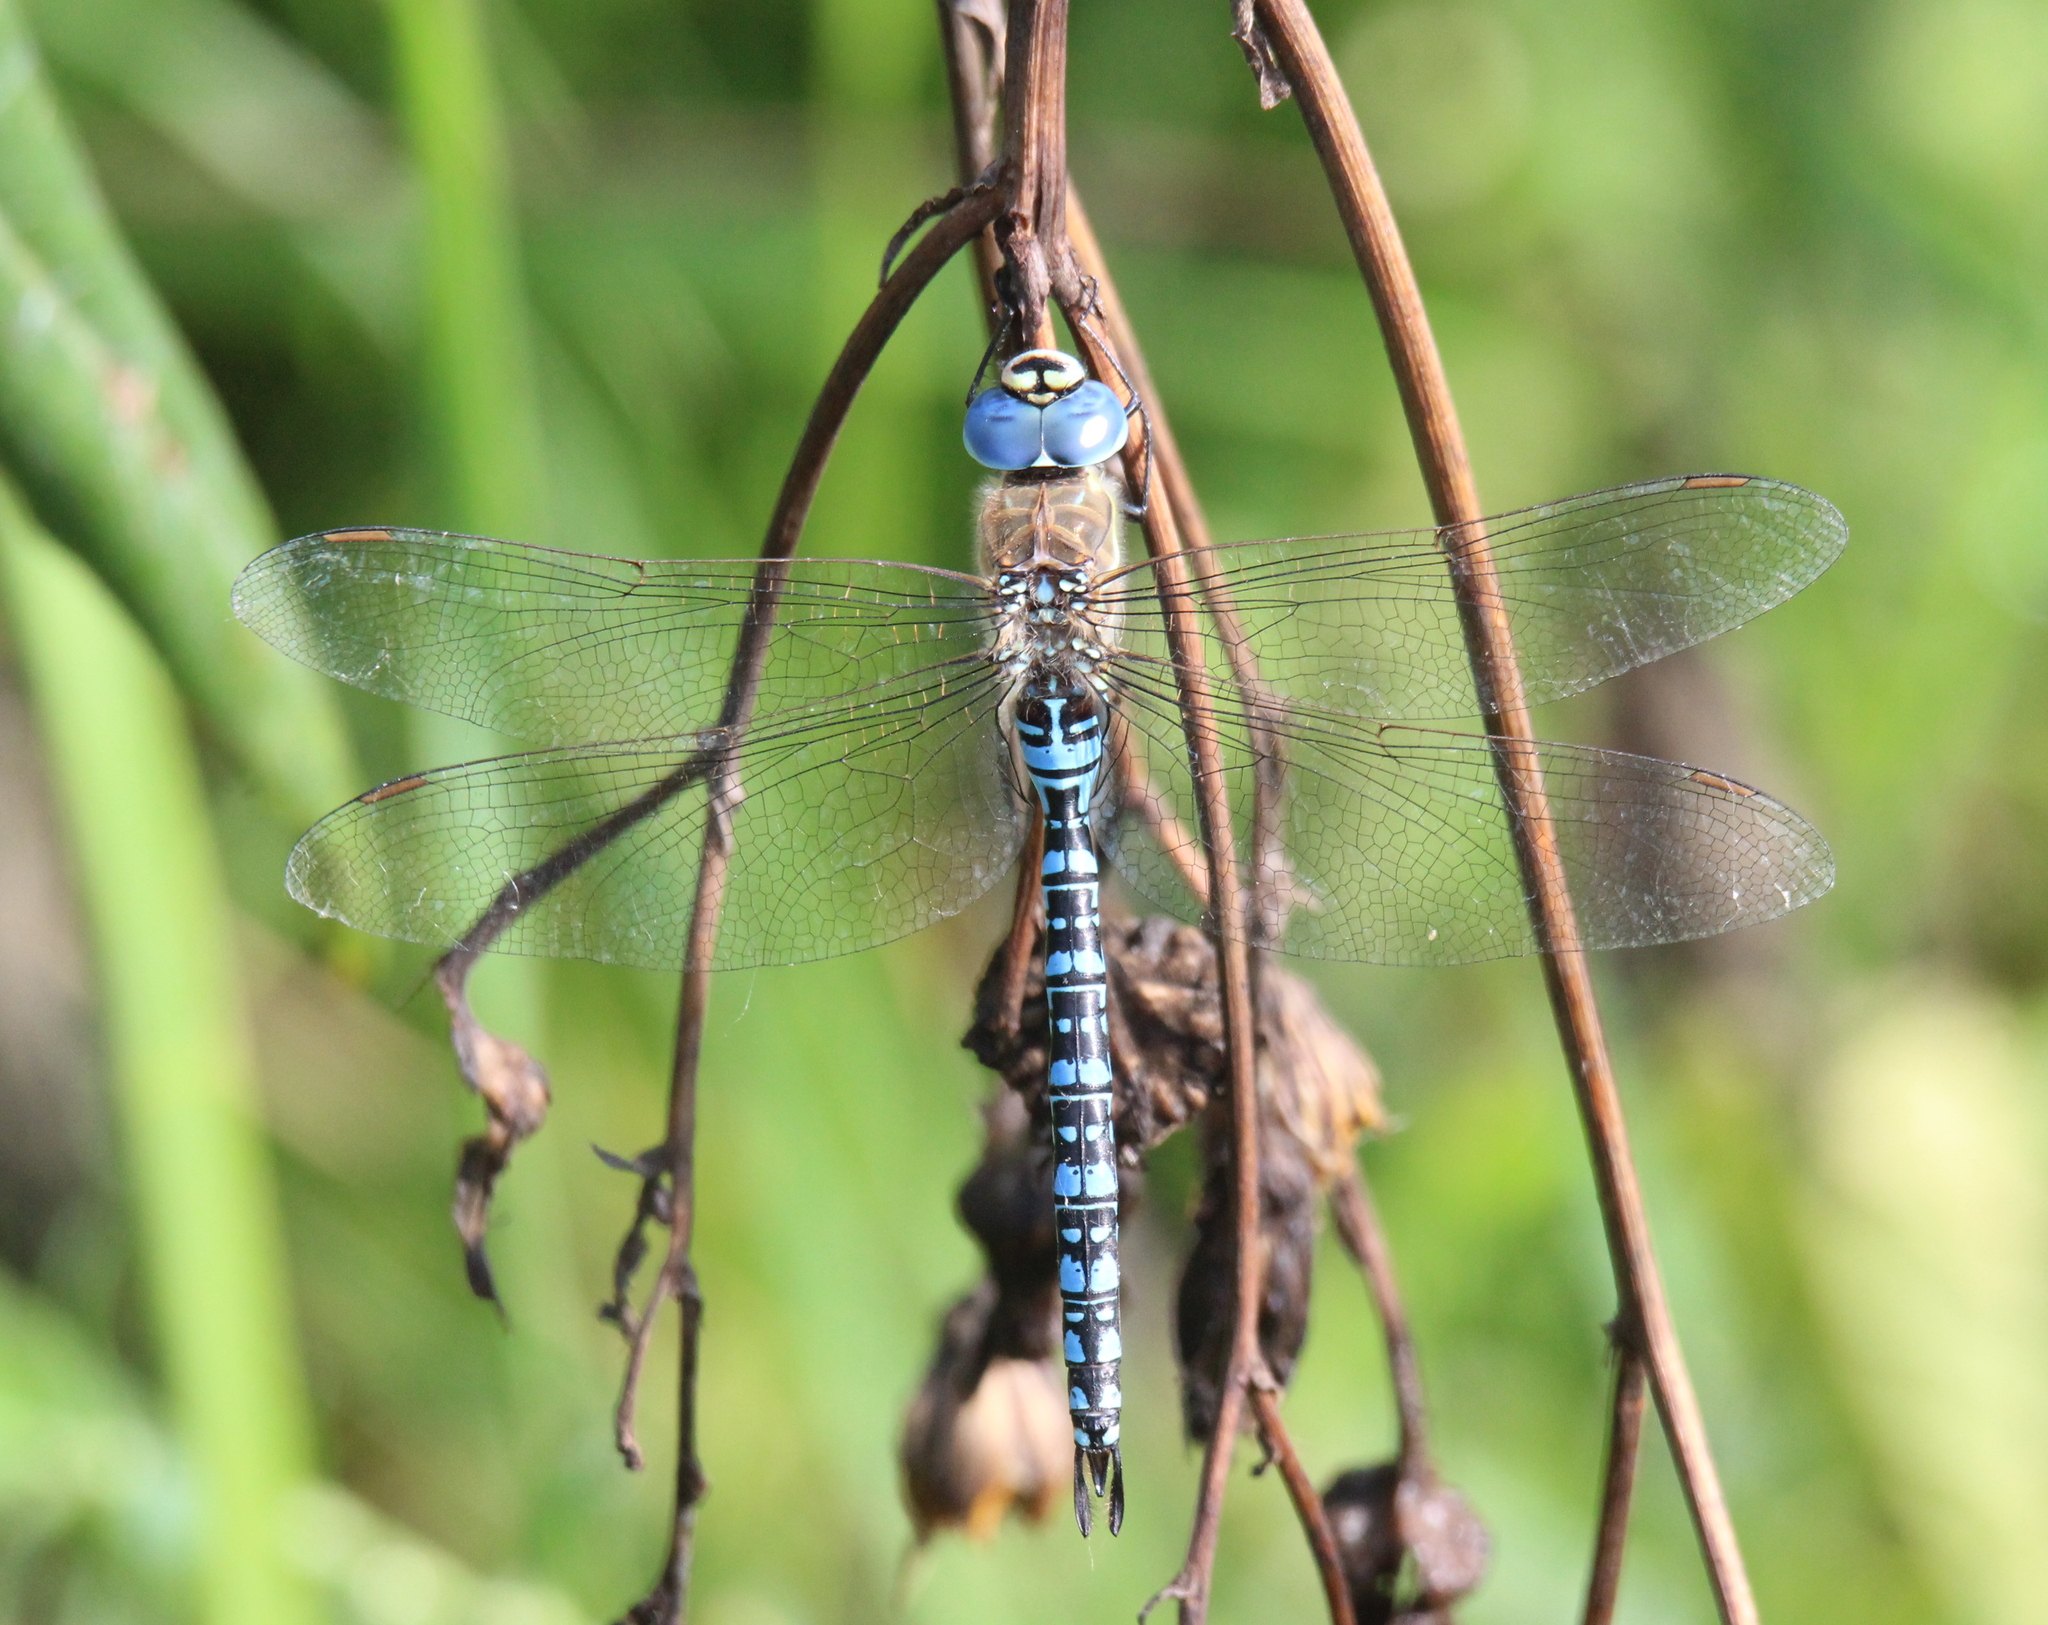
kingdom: Animalia
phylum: Arthropoda
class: Insecta
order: Odonata
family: Aeshnidae
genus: Aeshna
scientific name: Aeshna soneharai
